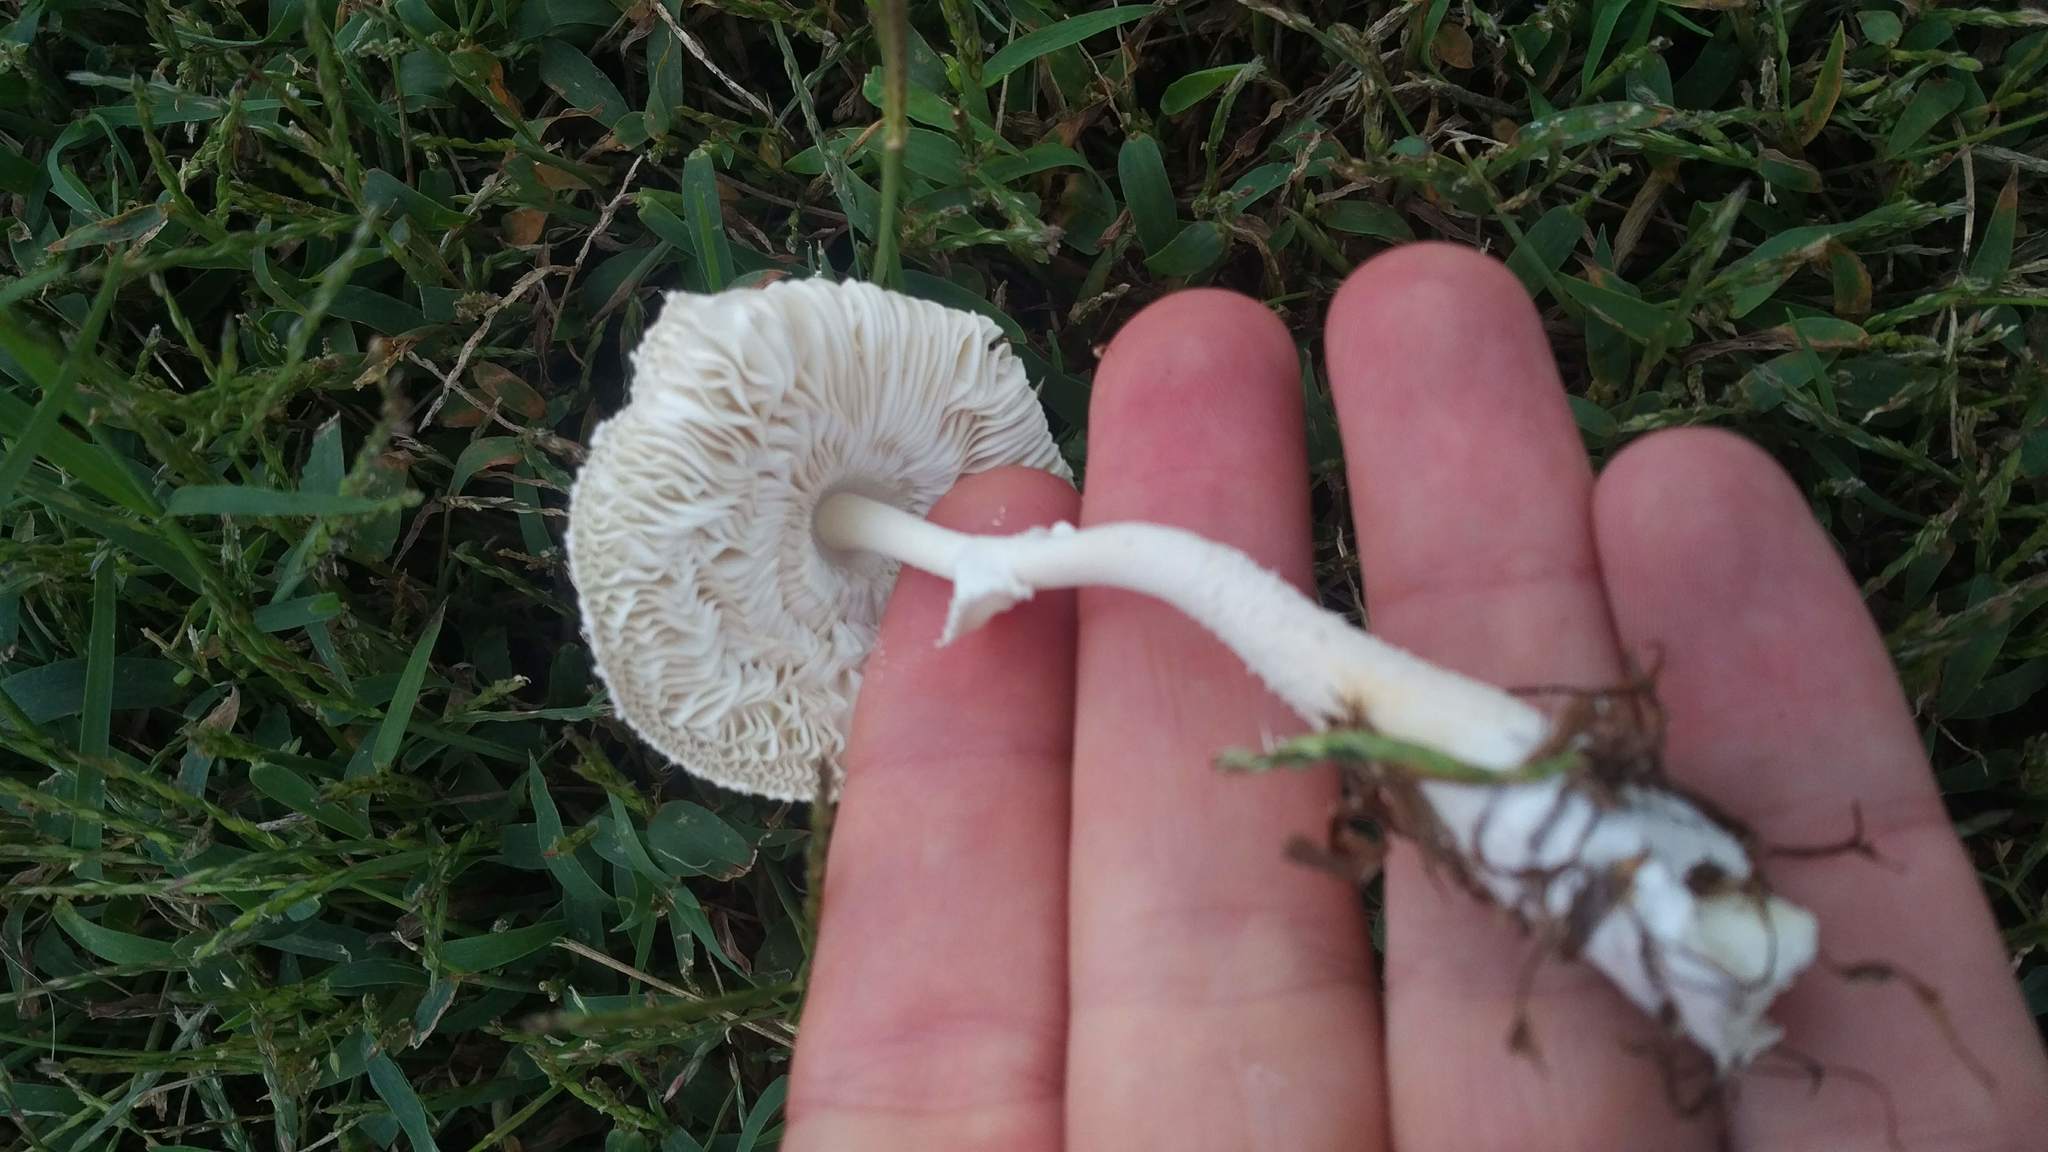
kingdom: Fungi
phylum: Basidiomycota
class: Agaricomycetes
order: Agaricales
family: Agaricaceae
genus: Leucocoprinus
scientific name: Leucocoprinus cretaceus
